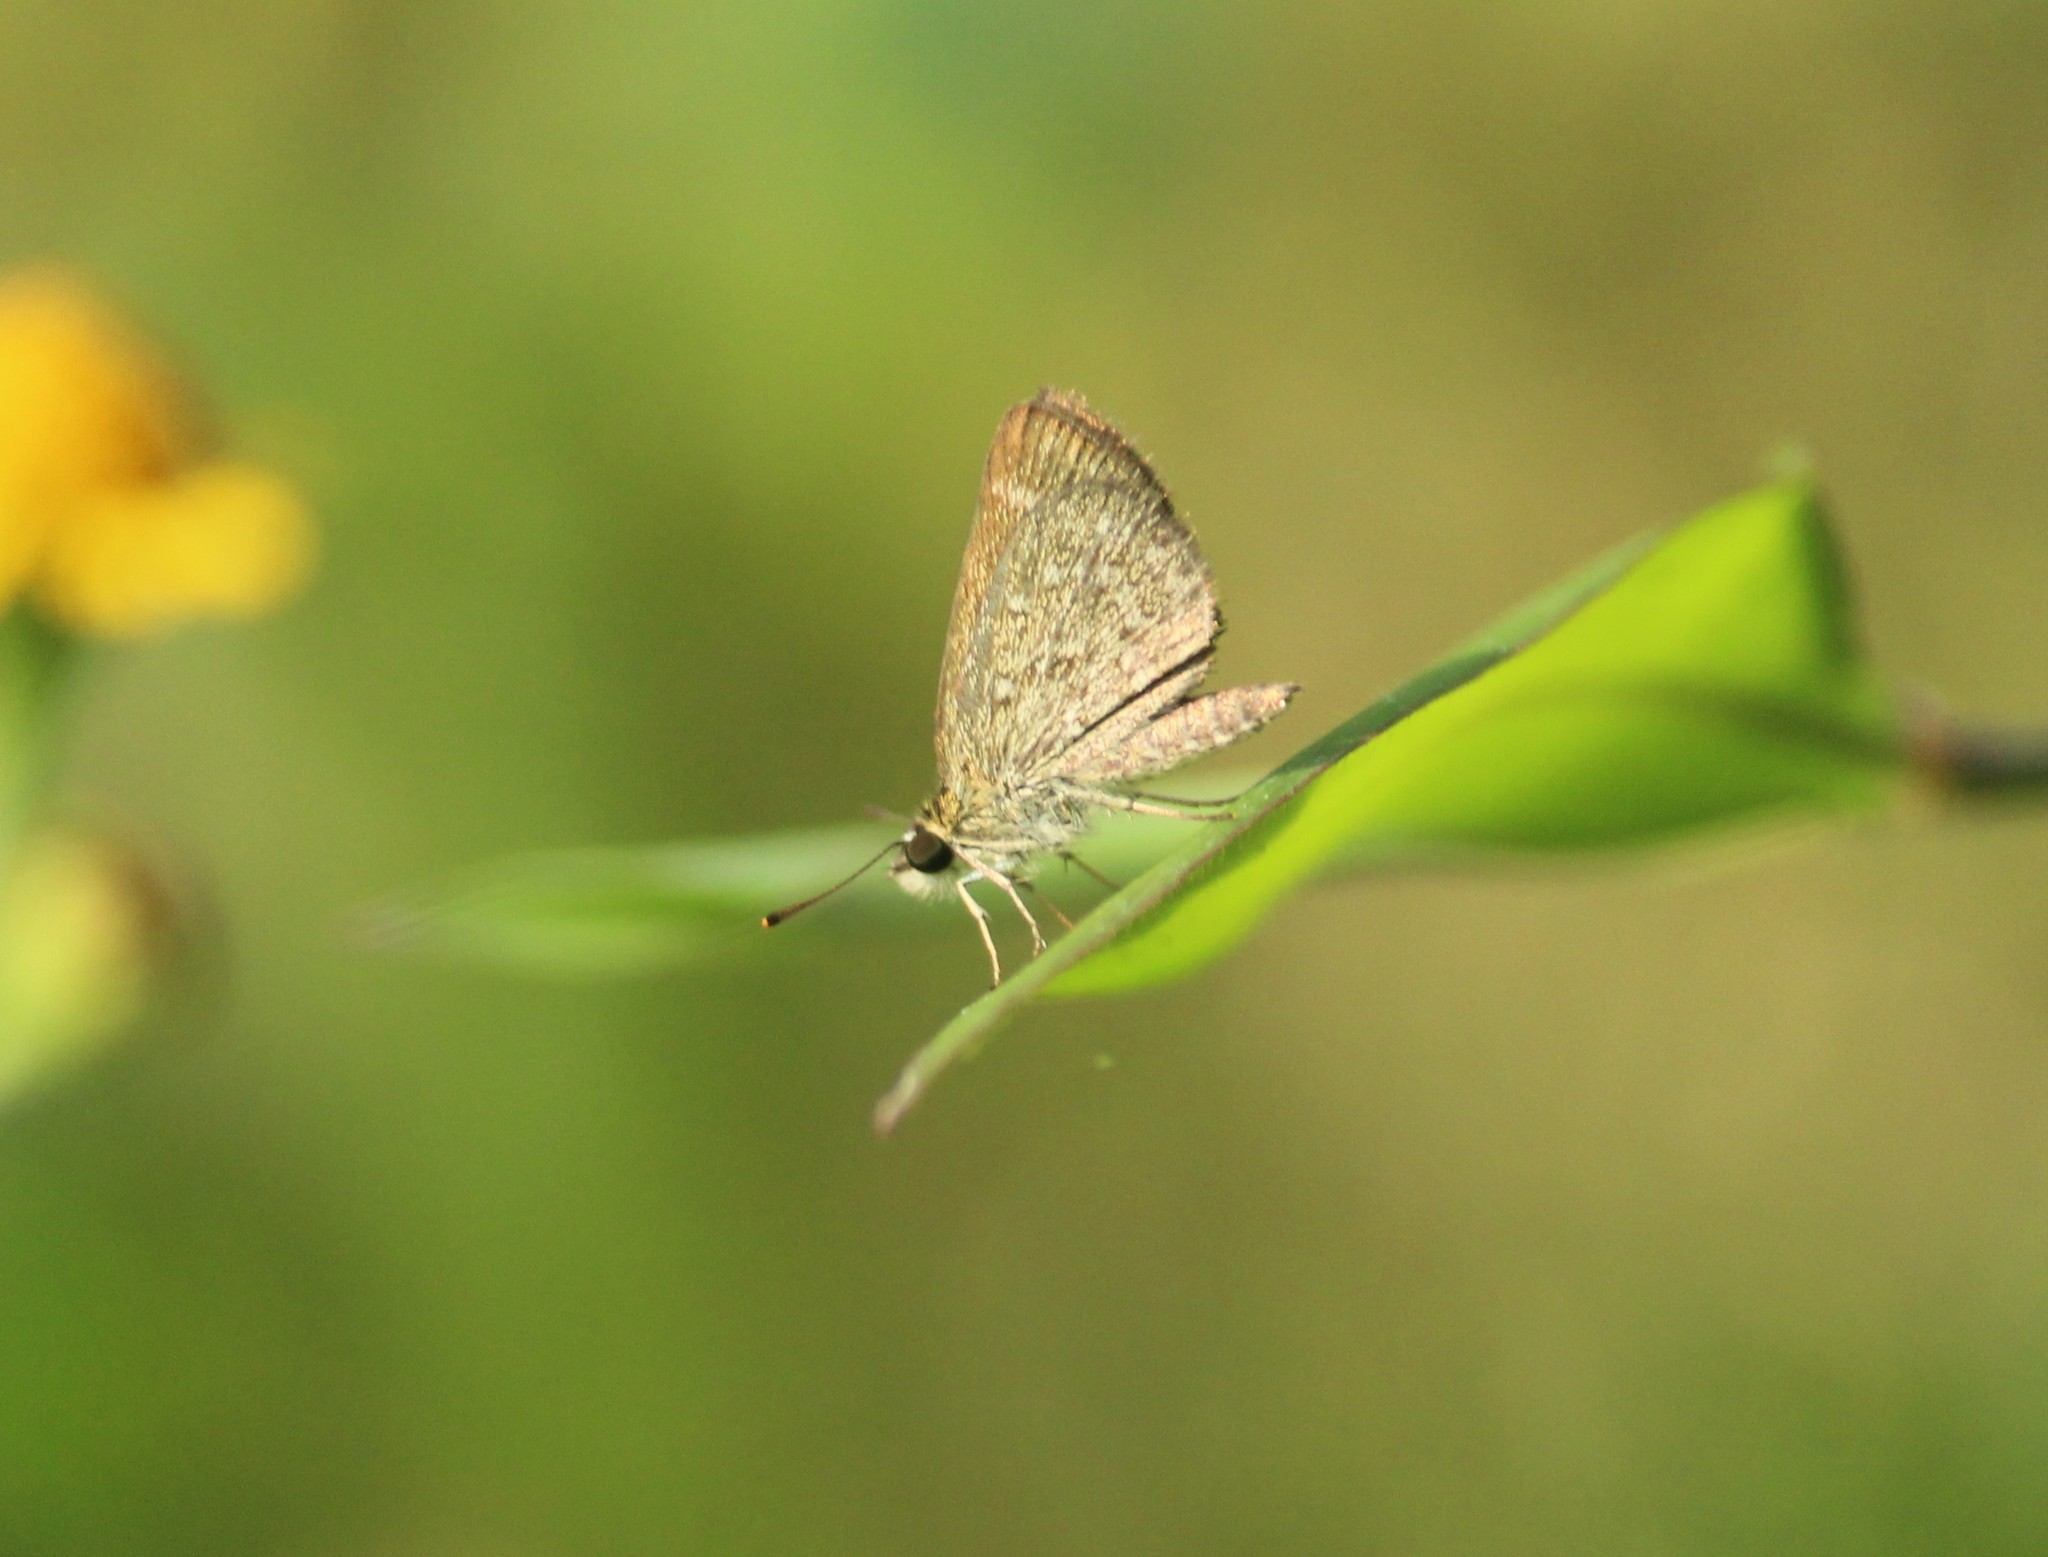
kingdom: Animalia
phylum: Arthropoda
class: Insecta
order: Lepidoptera
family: Hesperiidae
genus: Aeromachus
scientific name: Aeromachus pygmaeus
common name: Pygmy scrub hopper
